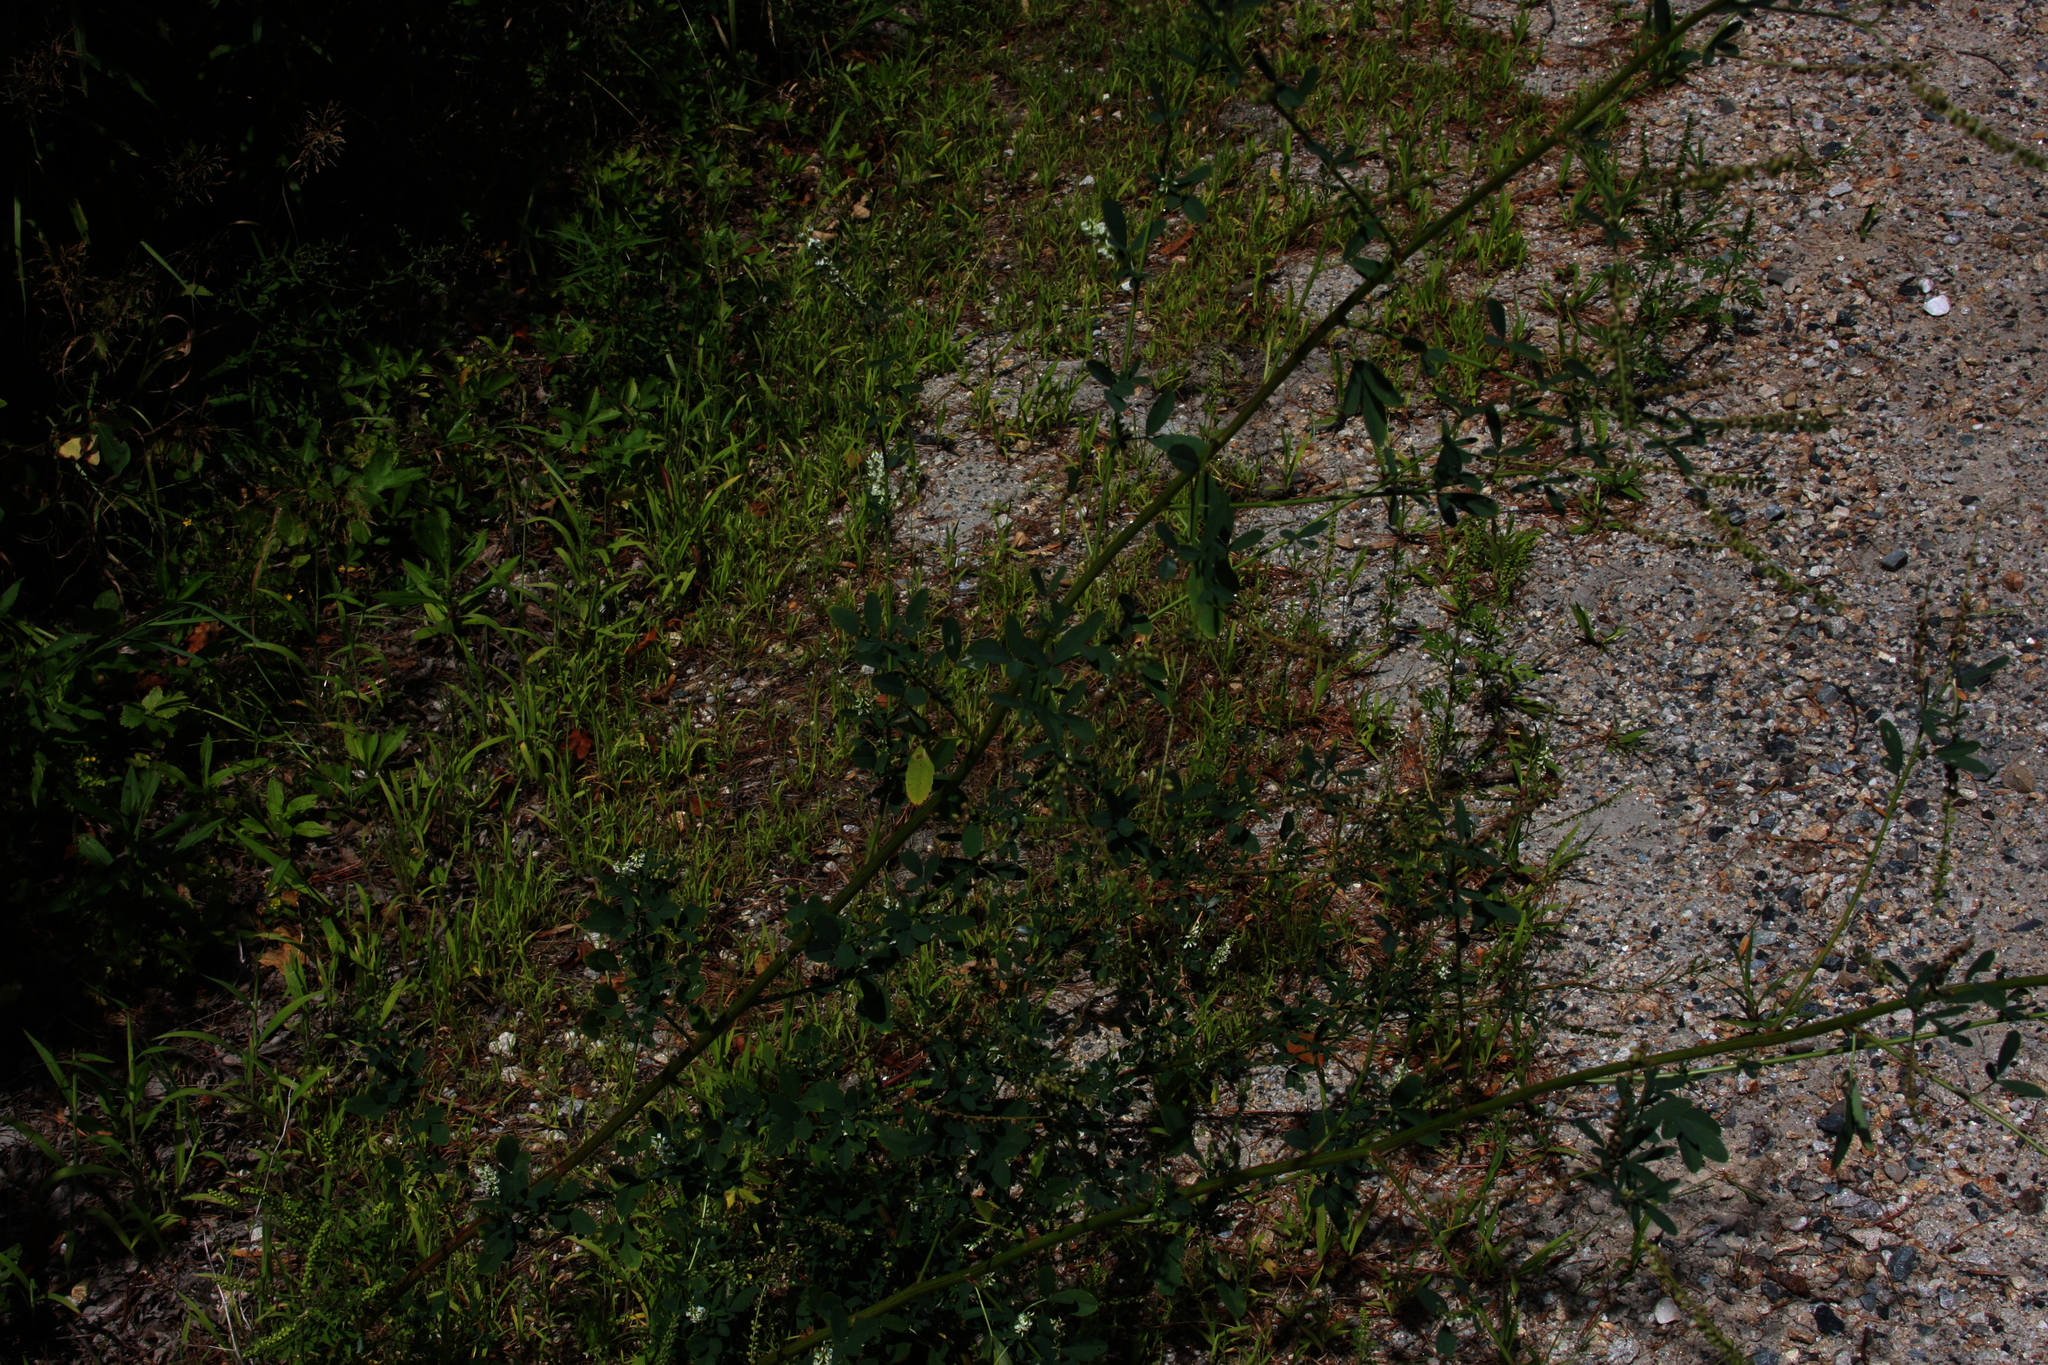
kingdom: Plantae
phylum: Tracheophyta
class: Magnoliopsida
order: Fabales
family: Fabaceae
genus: Melilotus
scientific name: Melilotus albus
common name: White melilot
